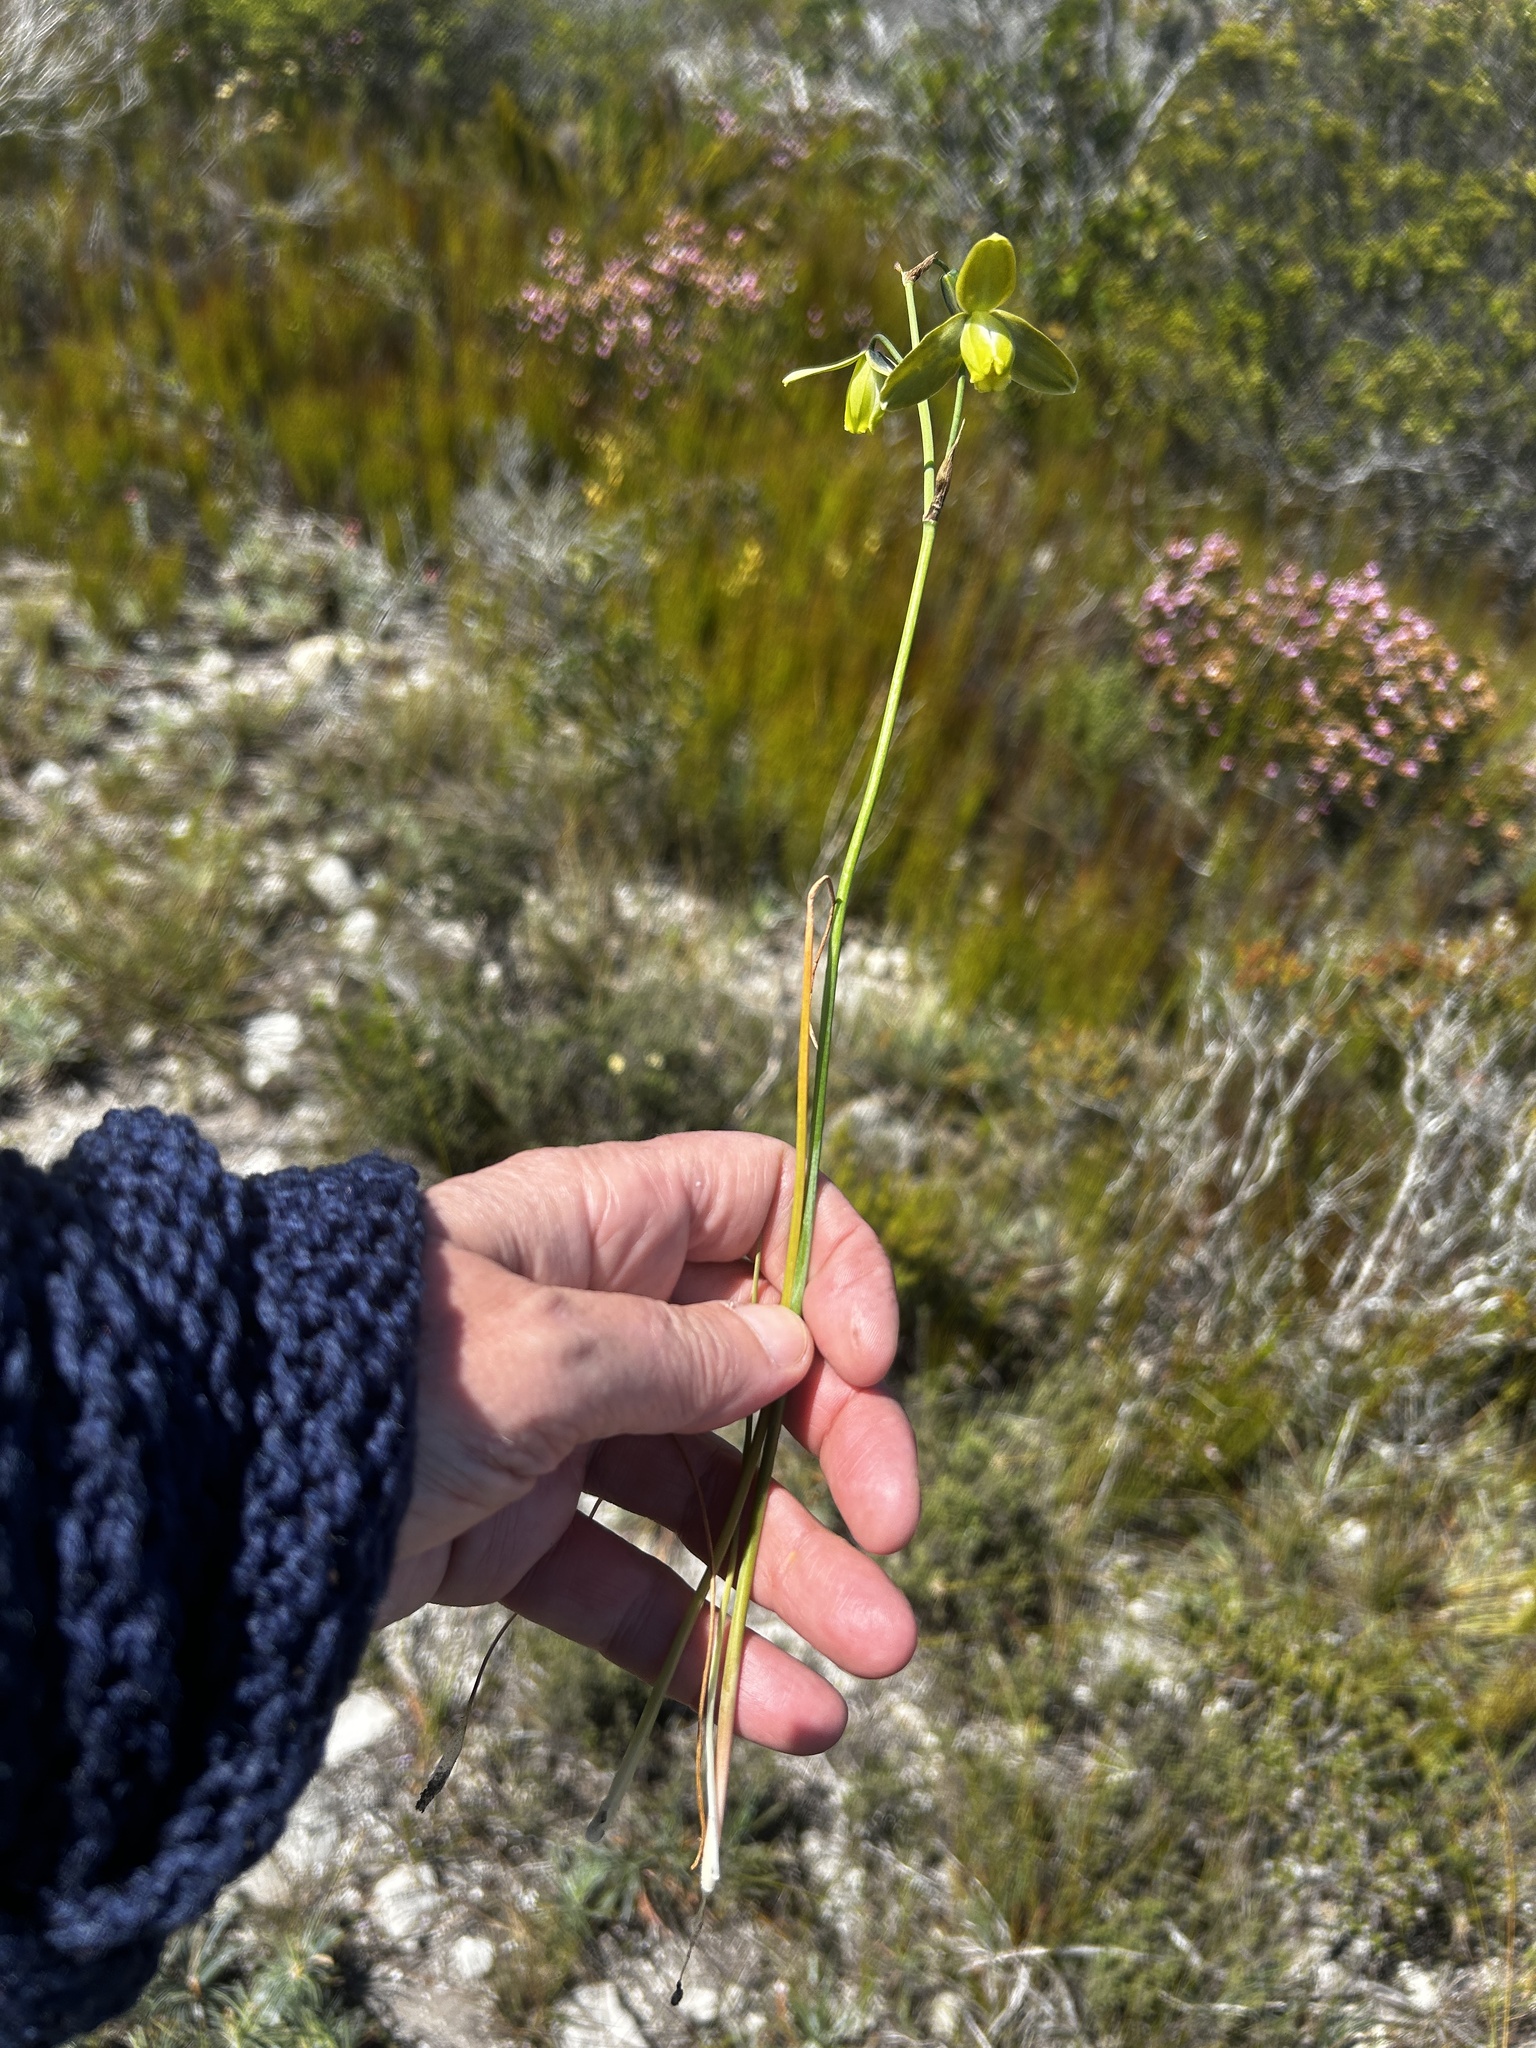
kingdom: Plantae
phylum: Tracheophyta
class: Liliopsida
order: Asparagales
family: Asparagaceae
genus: Albuca
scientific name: Albuca juncifolia
